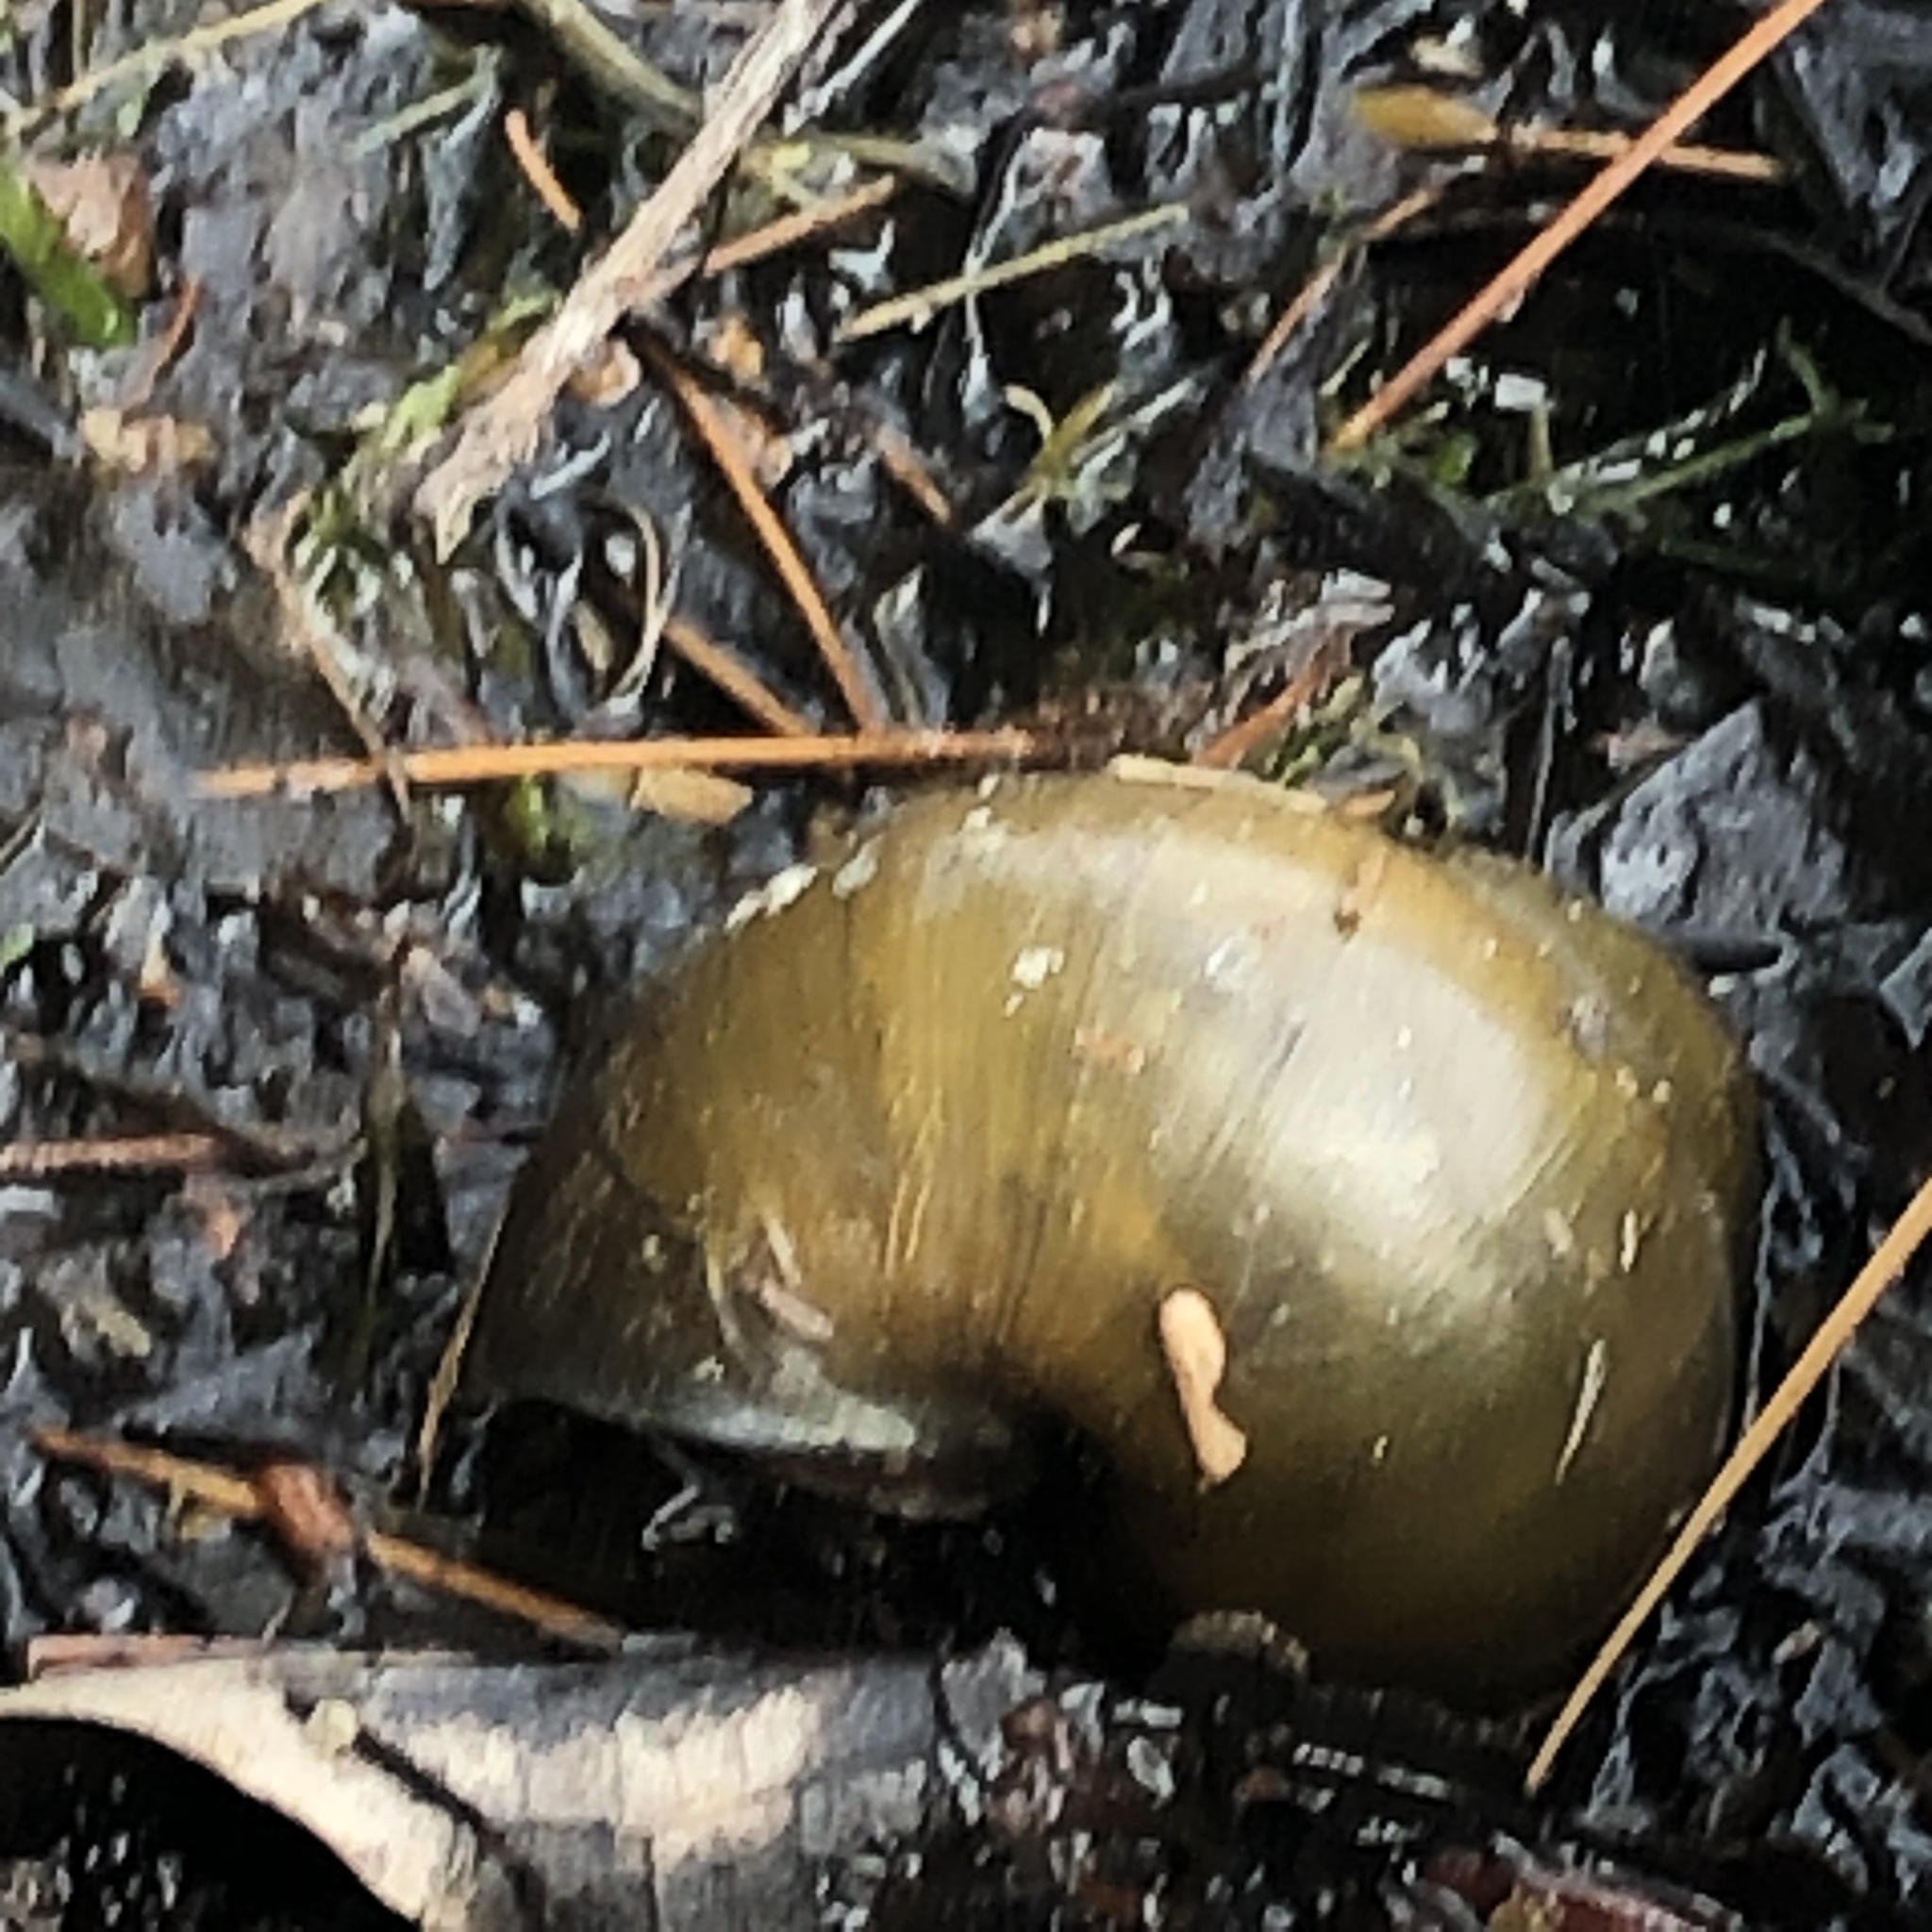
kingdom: Animalia
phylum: Mollusca
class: Gastropoda
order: Architaenioglossa
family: Viviparidae
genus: Cipangopaludina
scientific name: Cipangopaludina chinensis
